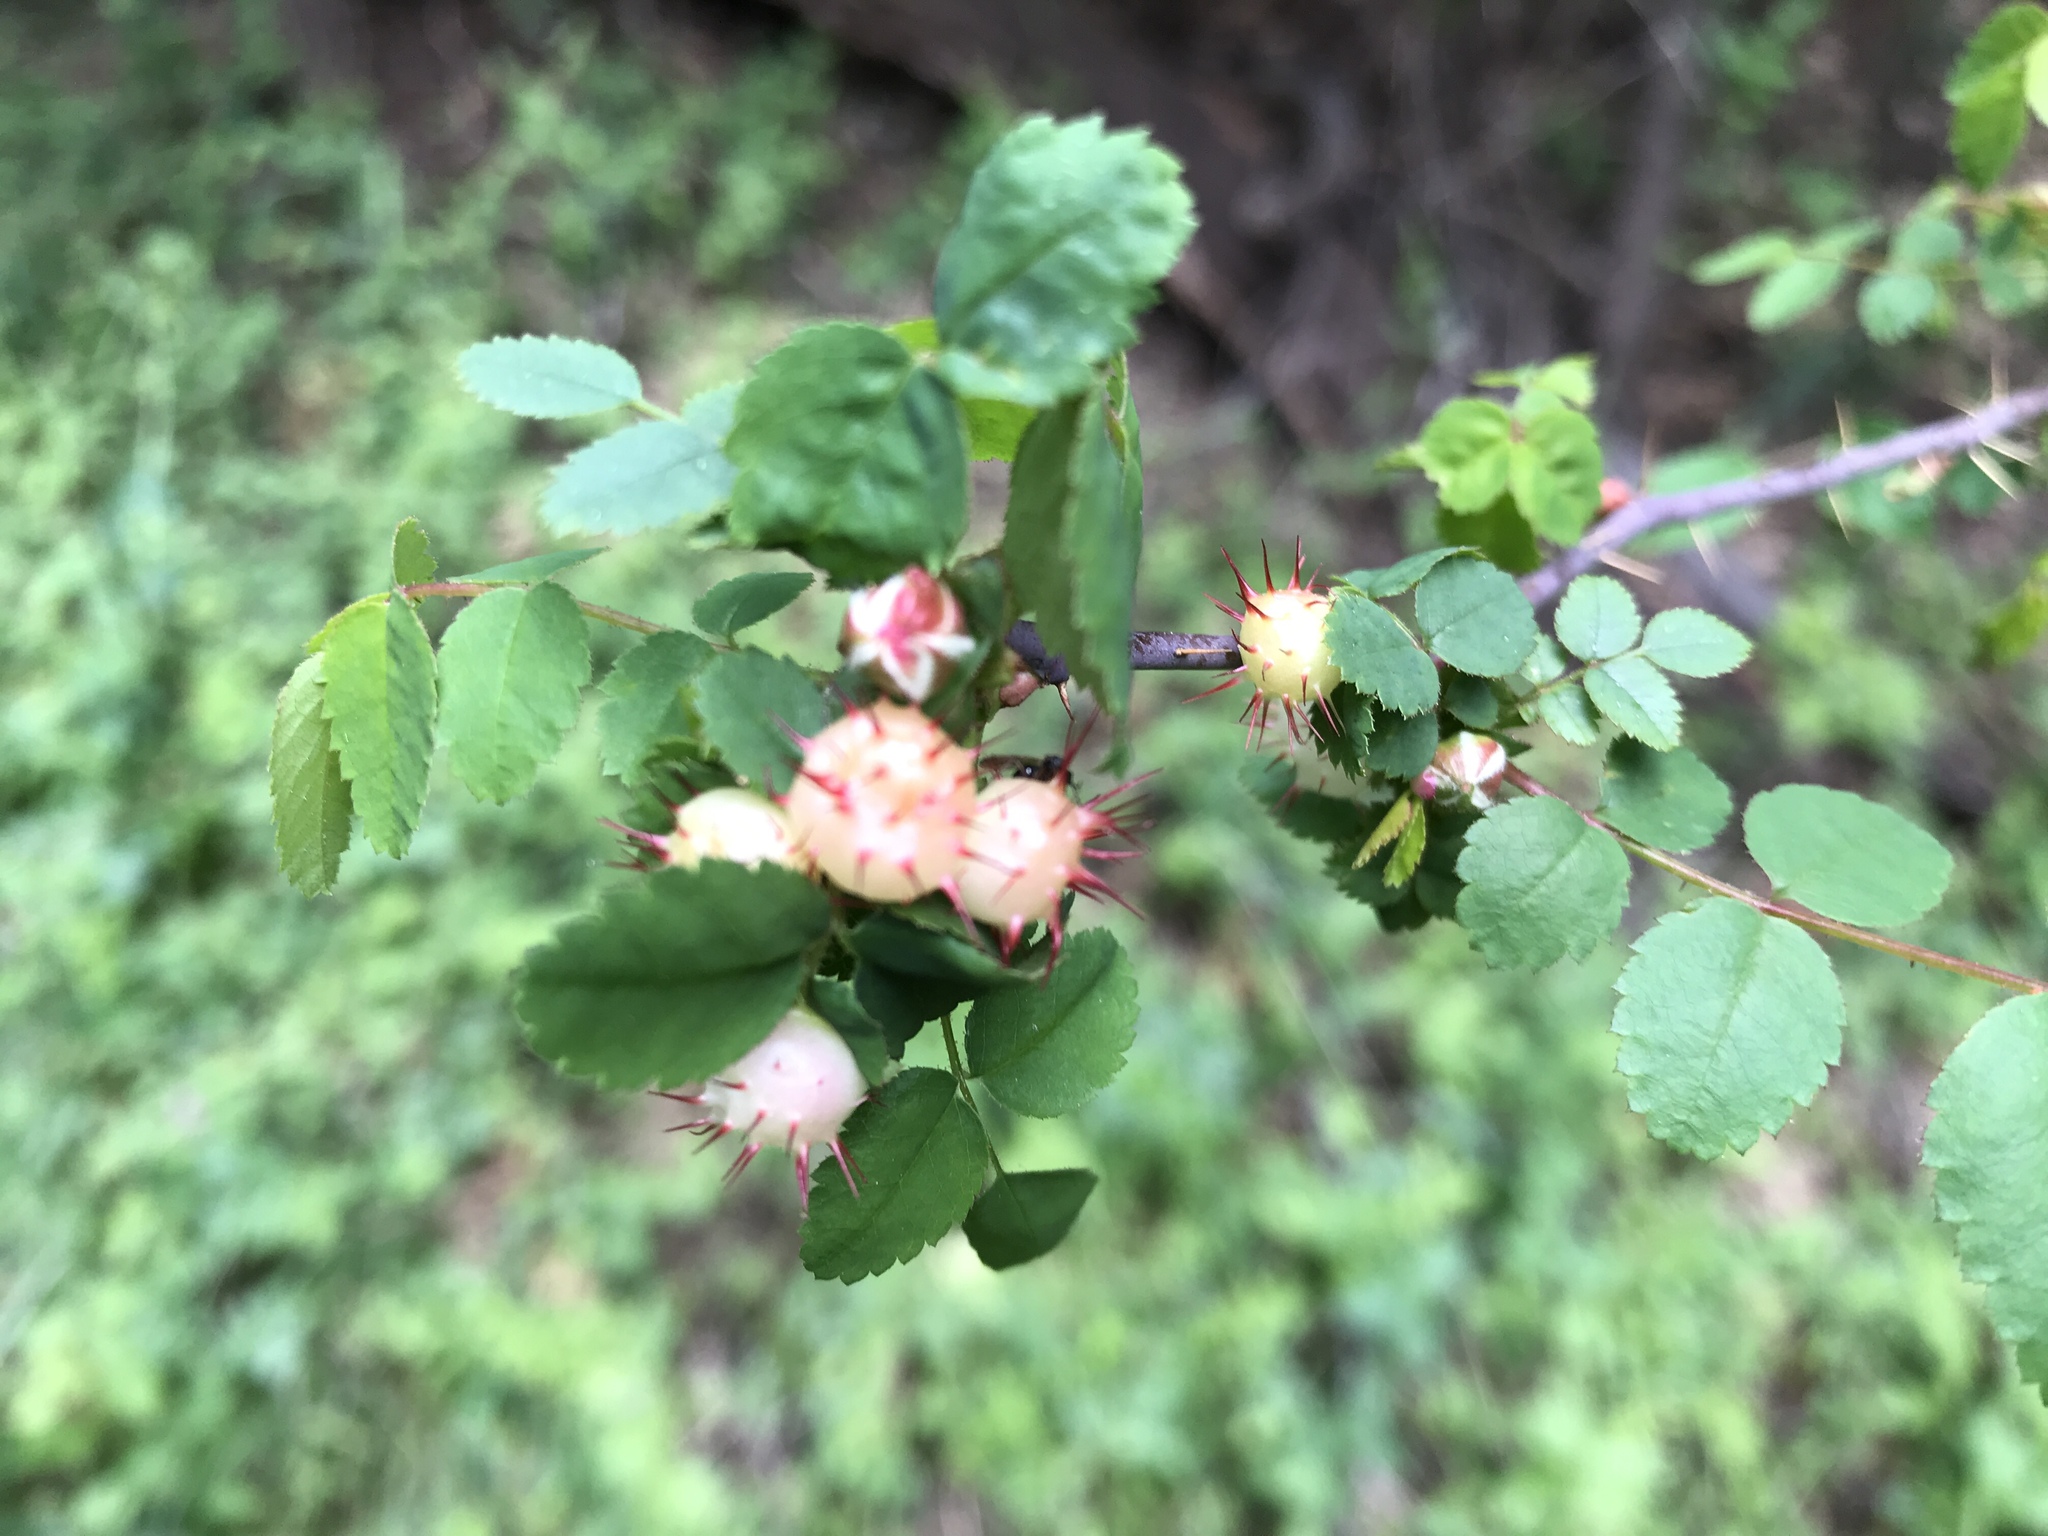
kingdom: Animalia
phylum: Arthropoda
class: Insecta
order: Hymenoptera
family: Cynipidae
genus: Diplolepis
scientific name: Diplolepis polita
